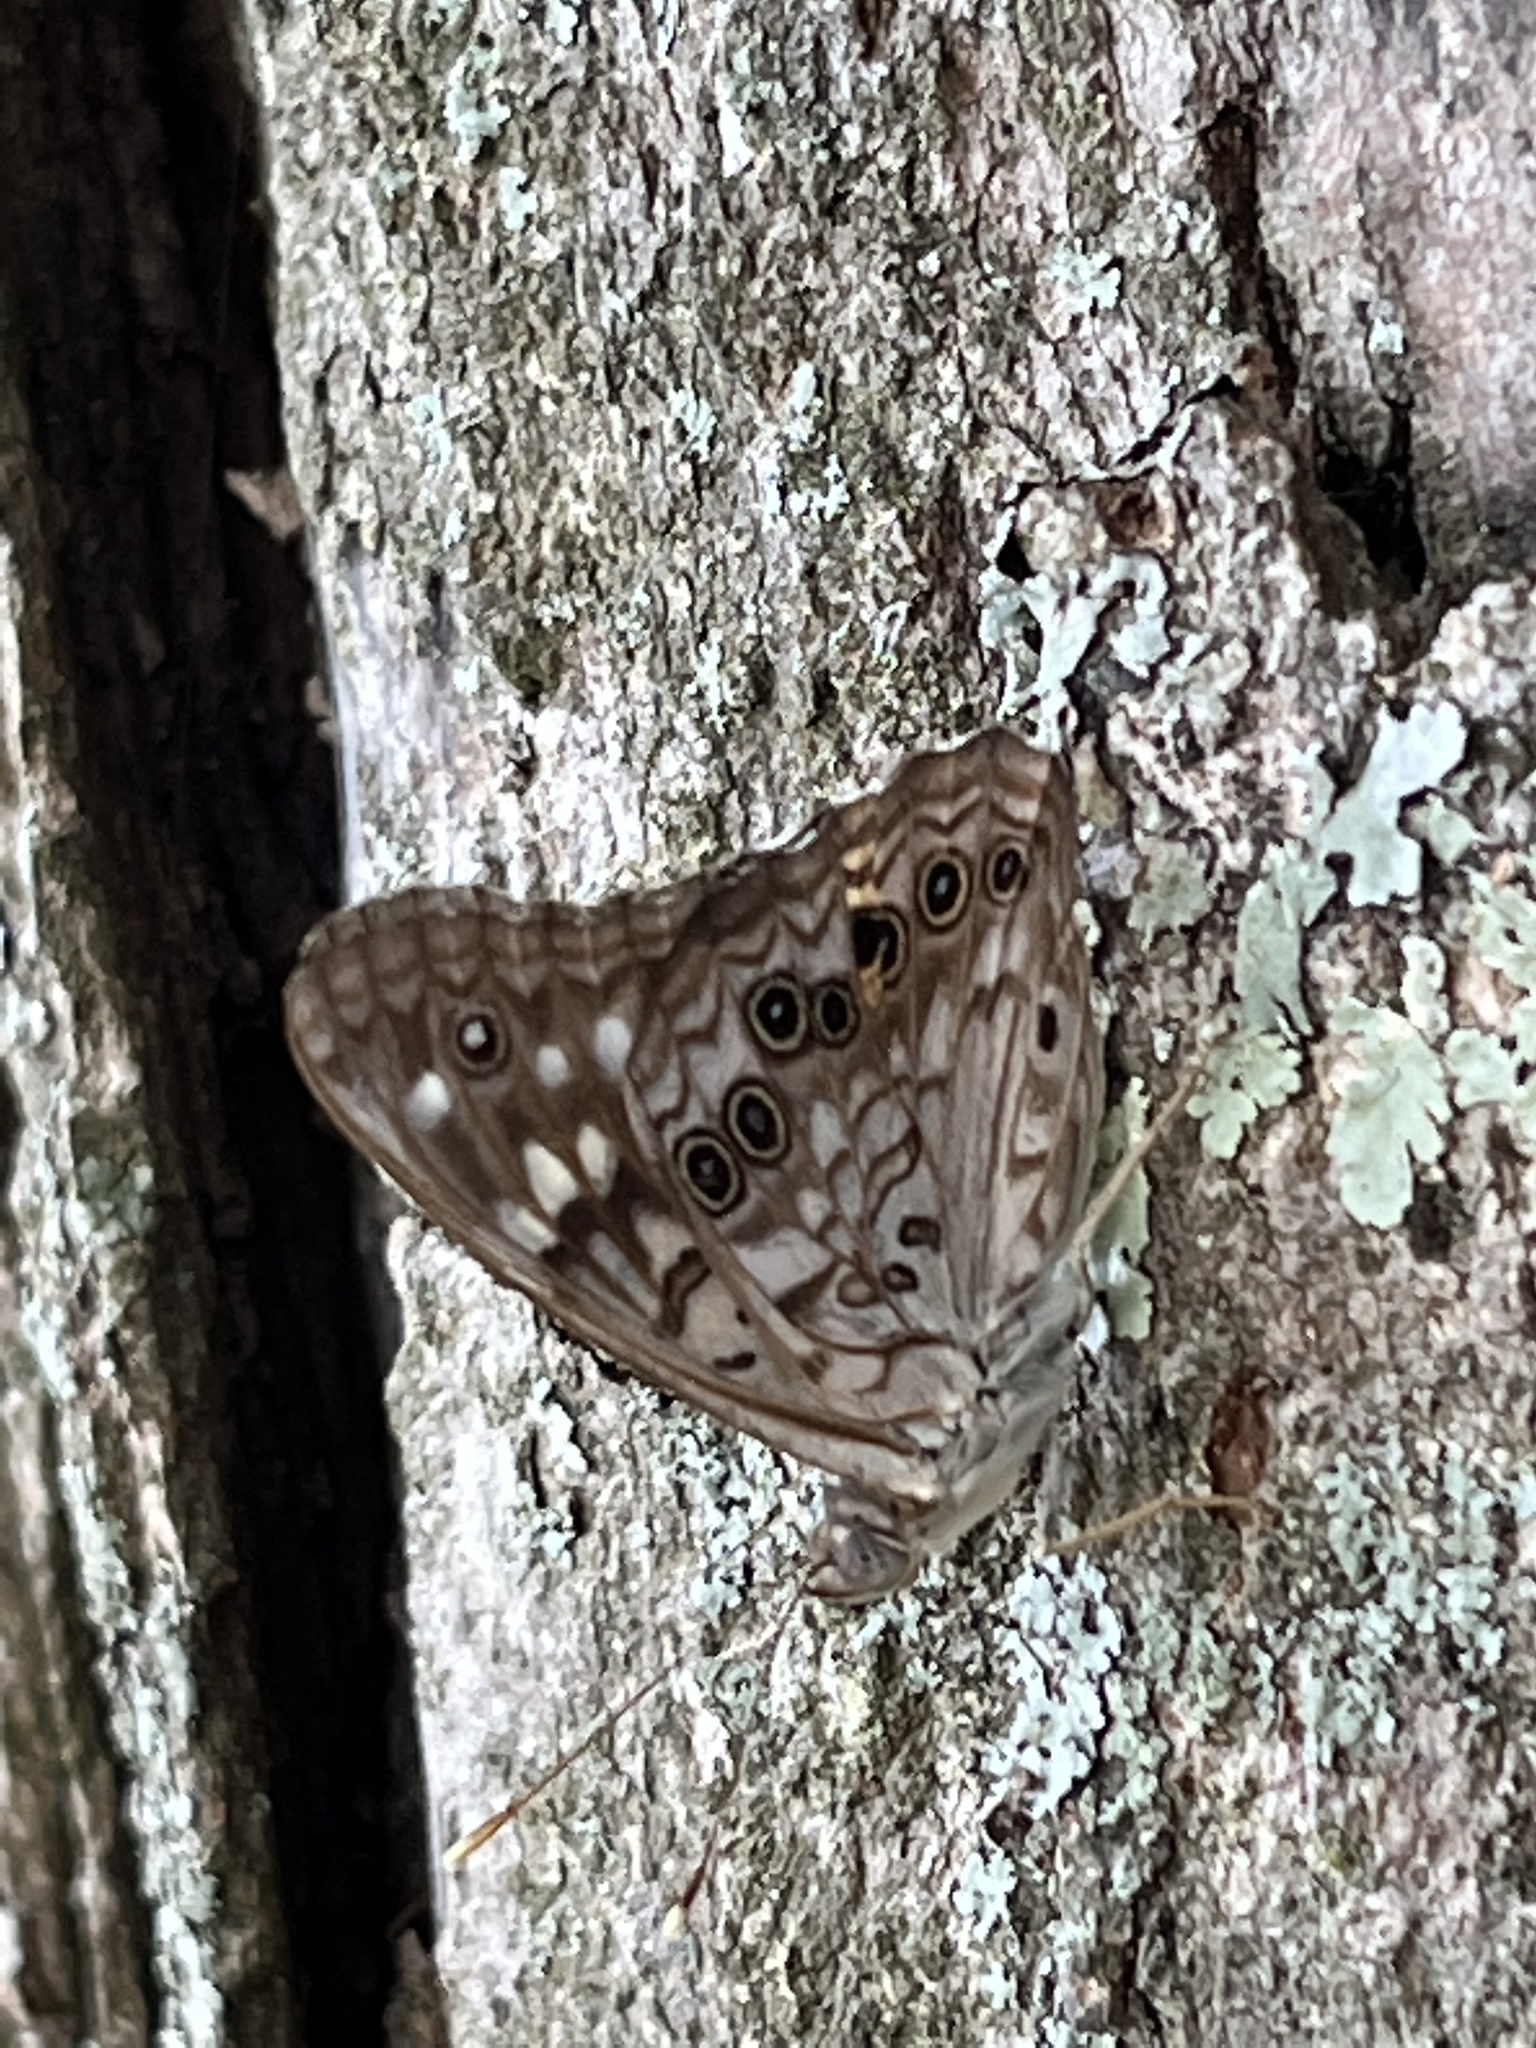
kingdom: Animalia
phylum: Arthropoda
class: Insecta
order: Lepidoptera
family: Nymphalidae
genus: Asterocampa
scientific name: Asterocampa celtis
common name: Hackberry emperor
